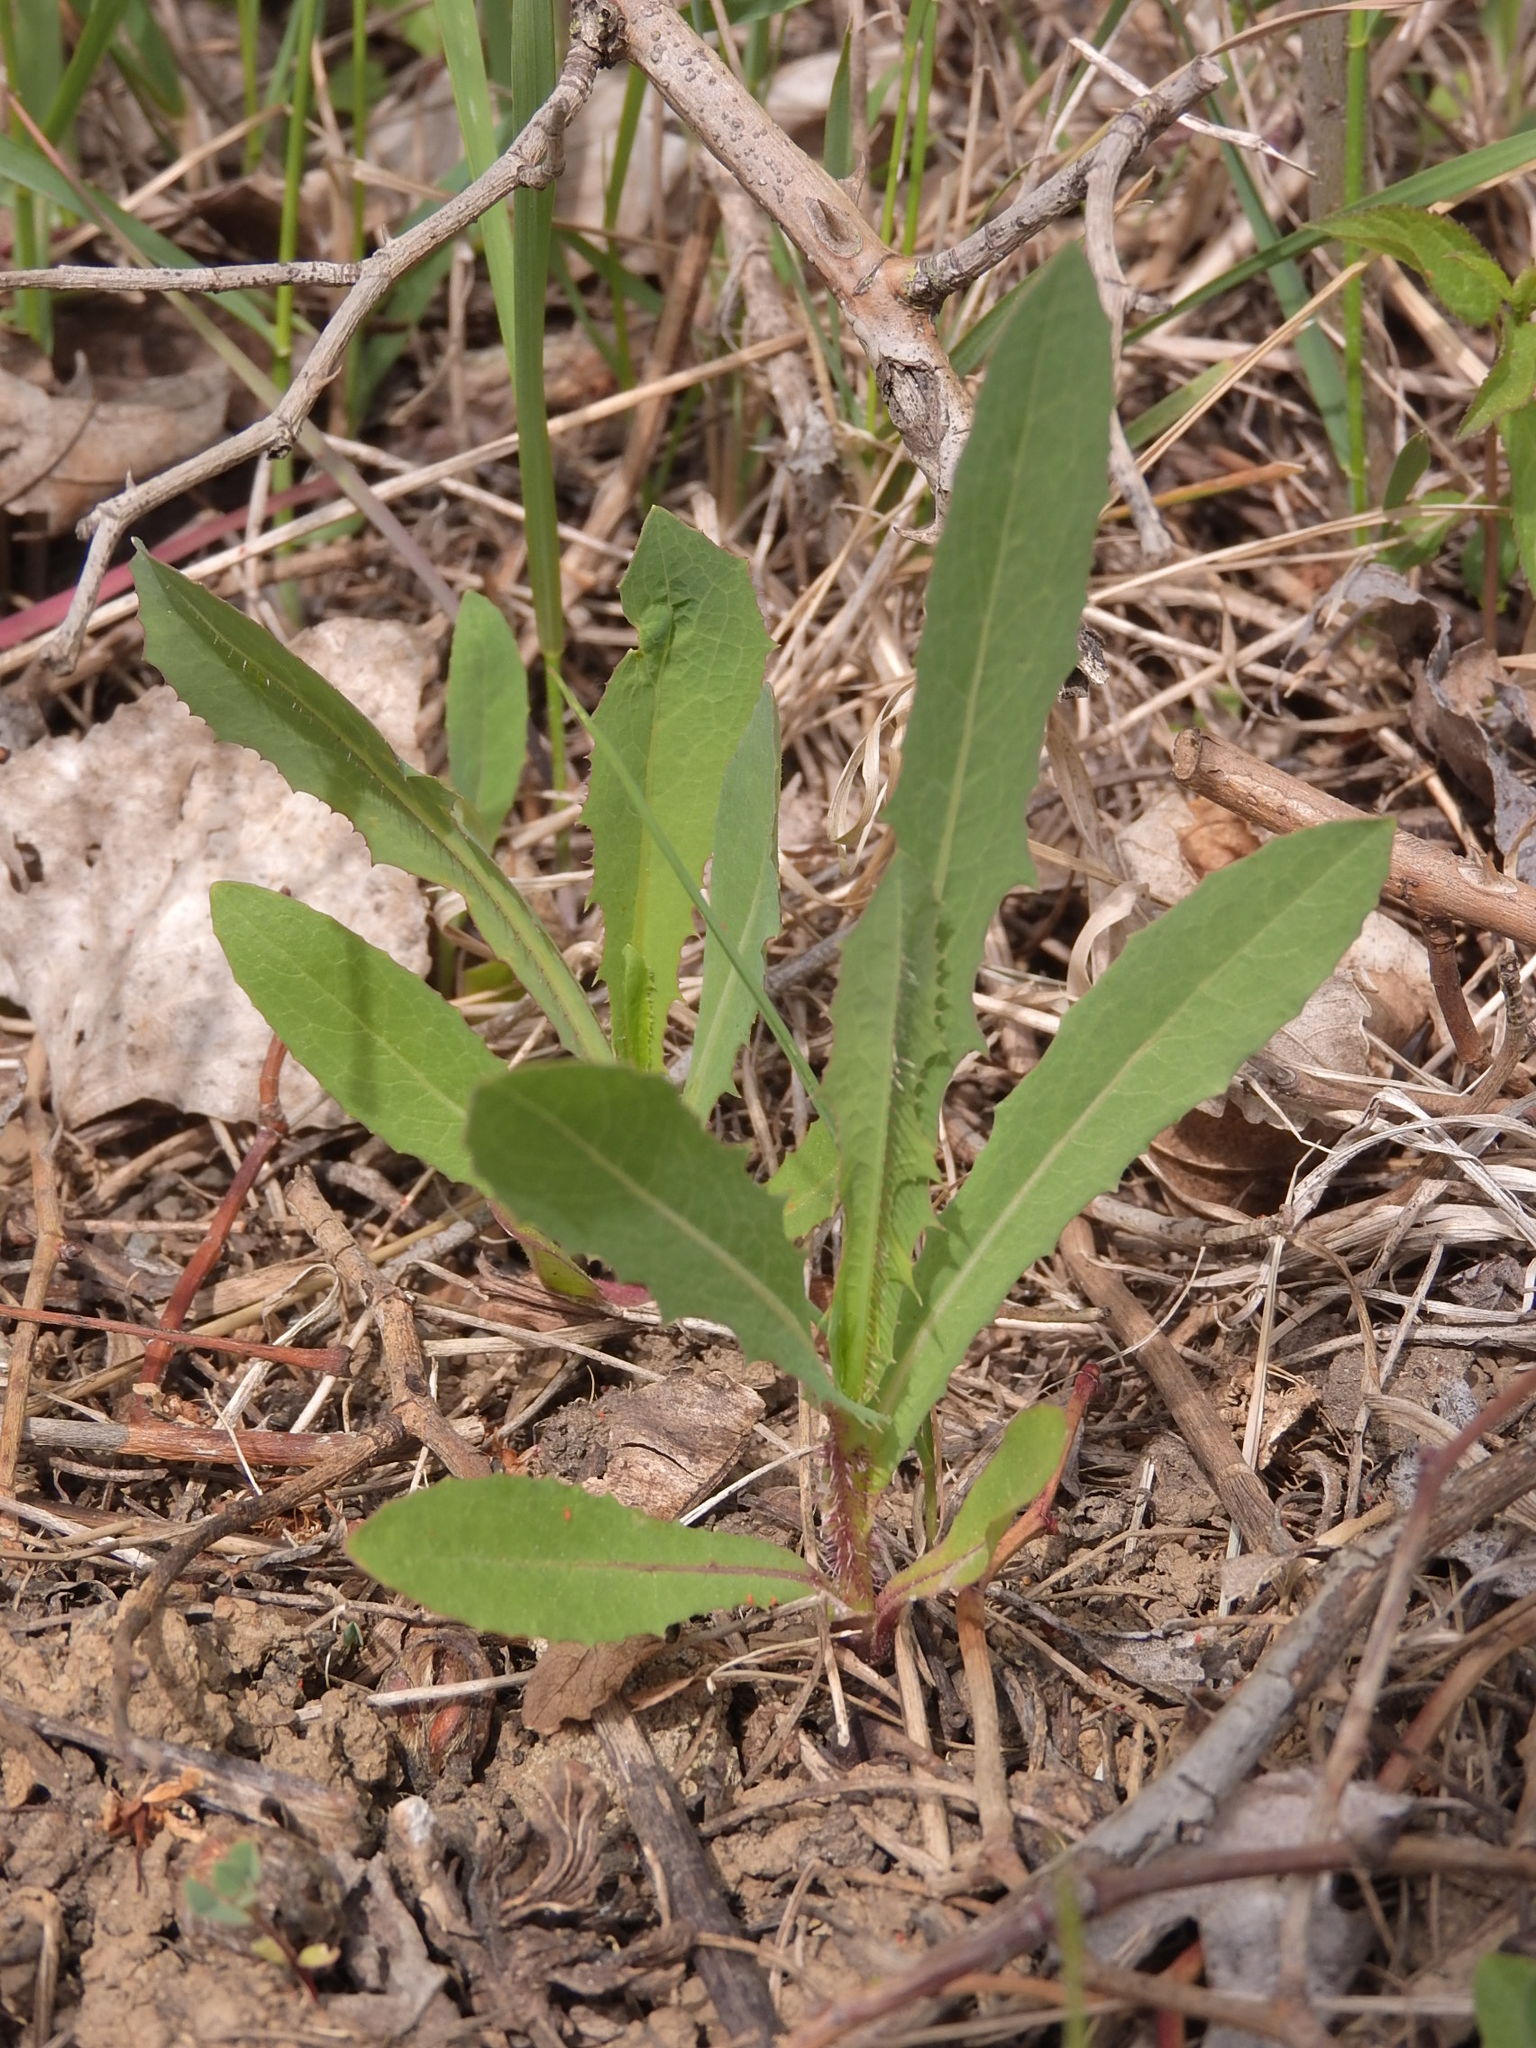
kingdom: Plantae
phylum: Tracheophyta
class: Magnoliopsida
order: Asterales
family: Asteraceae
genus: Lactuca
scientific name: Lactuca serriola
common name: Prickly lettuce
